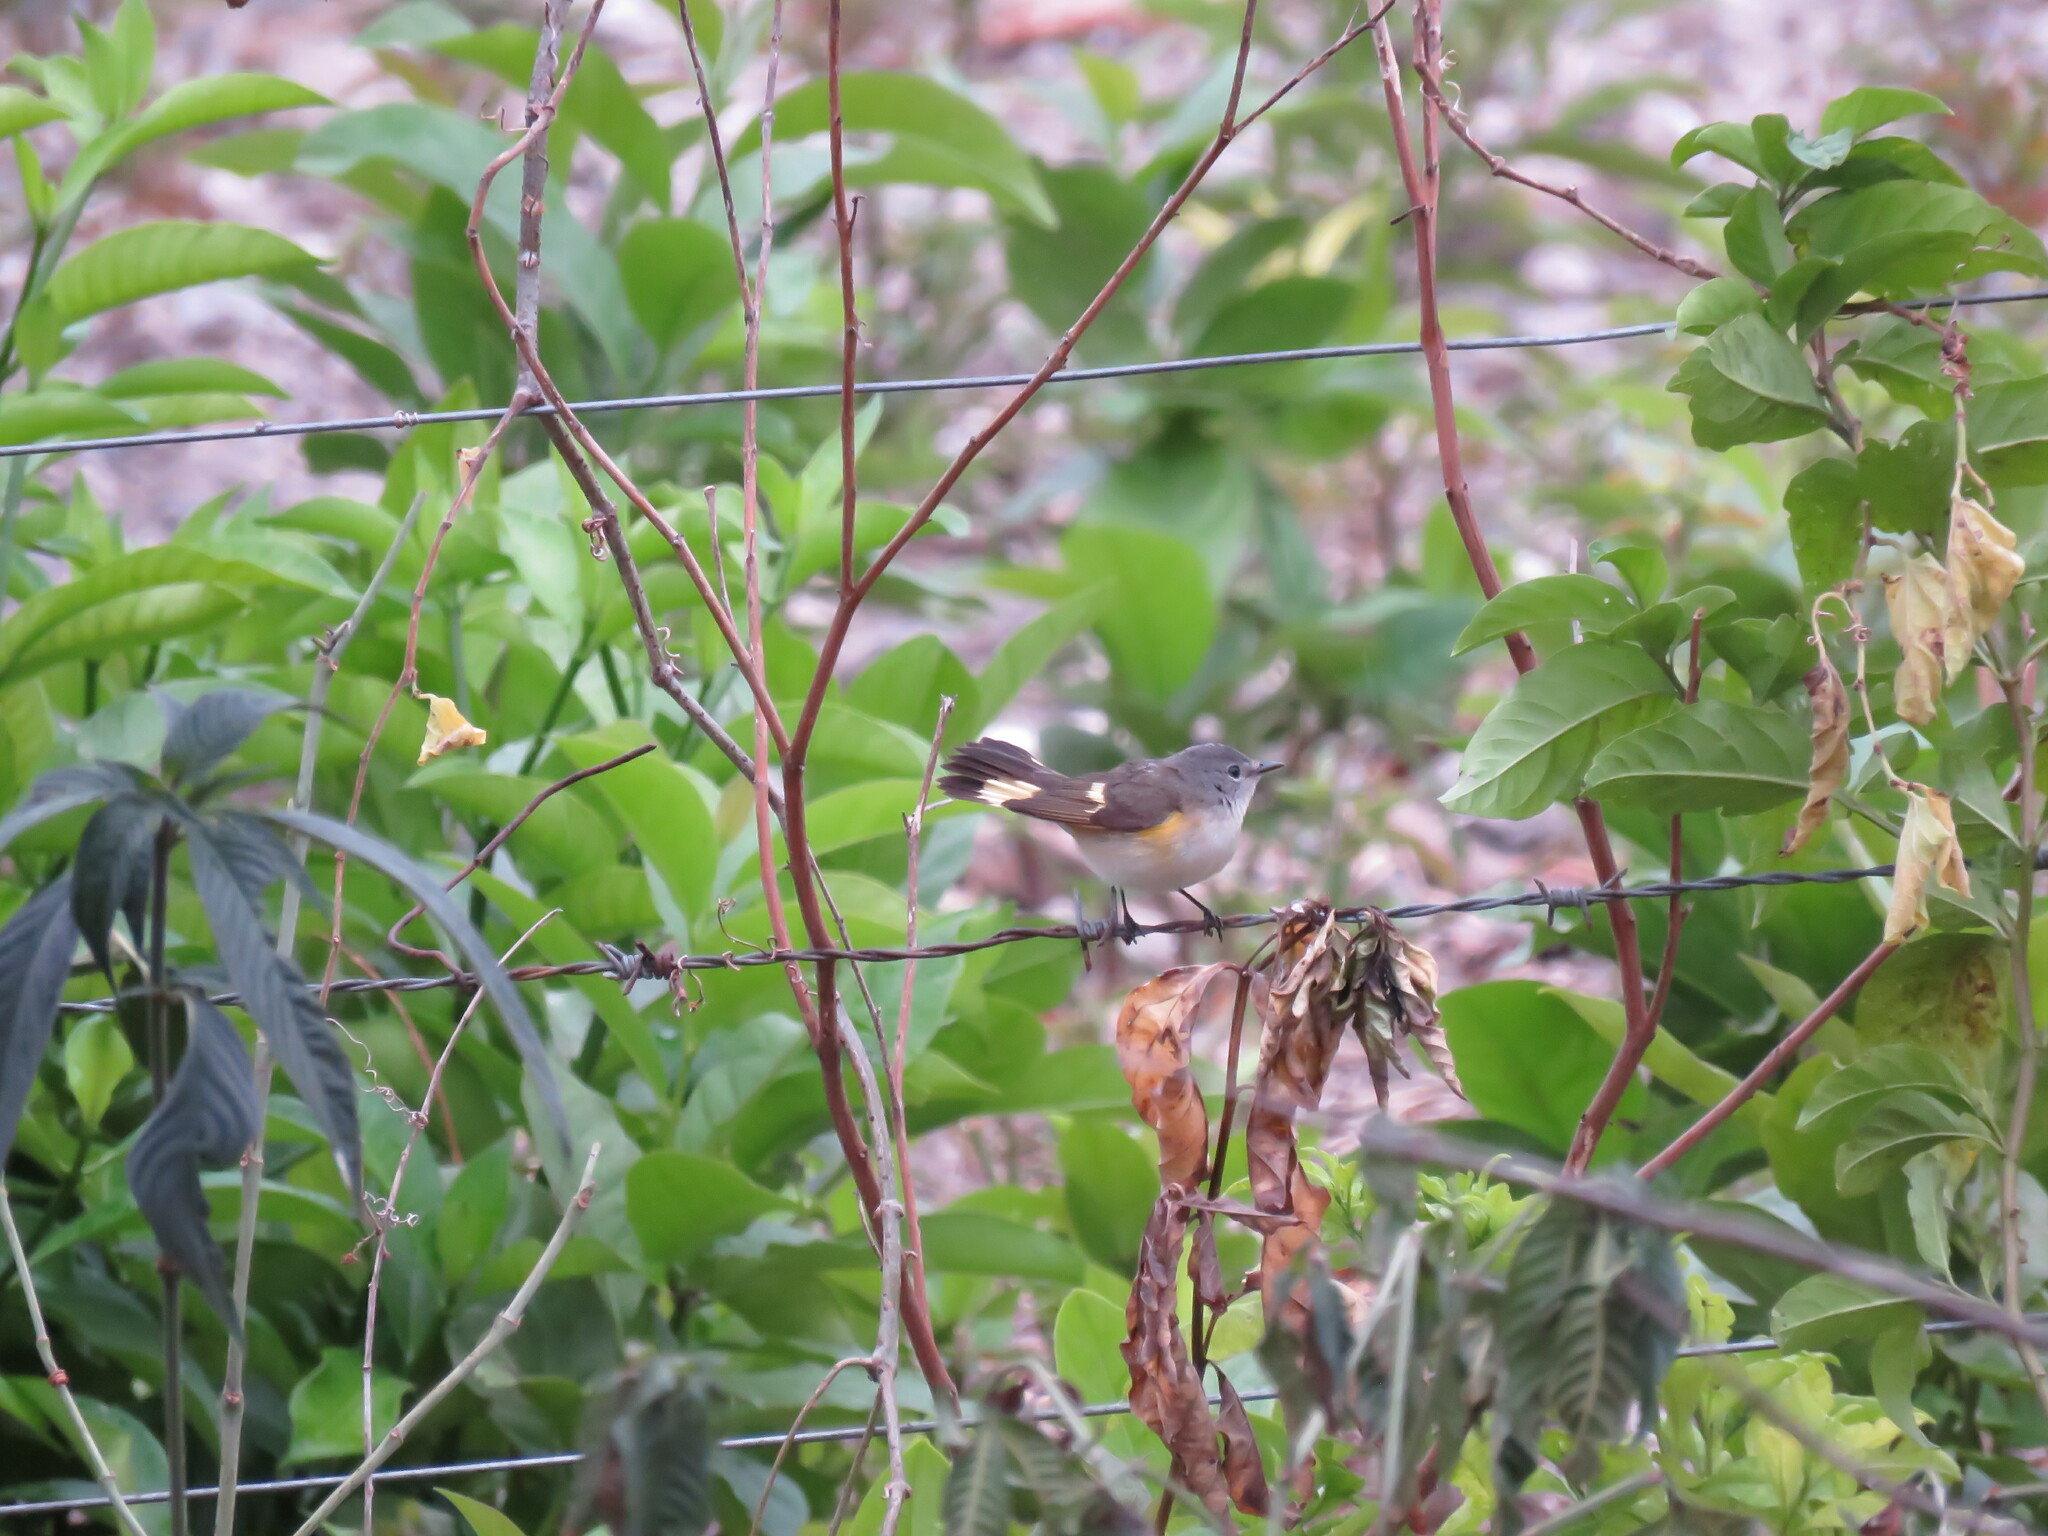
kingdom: Animalia
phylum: Chordata
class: Aves
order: Passeriformes
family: Parulidae
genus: Setophaga
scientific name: Setophaga ruticilla
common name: American redstart
